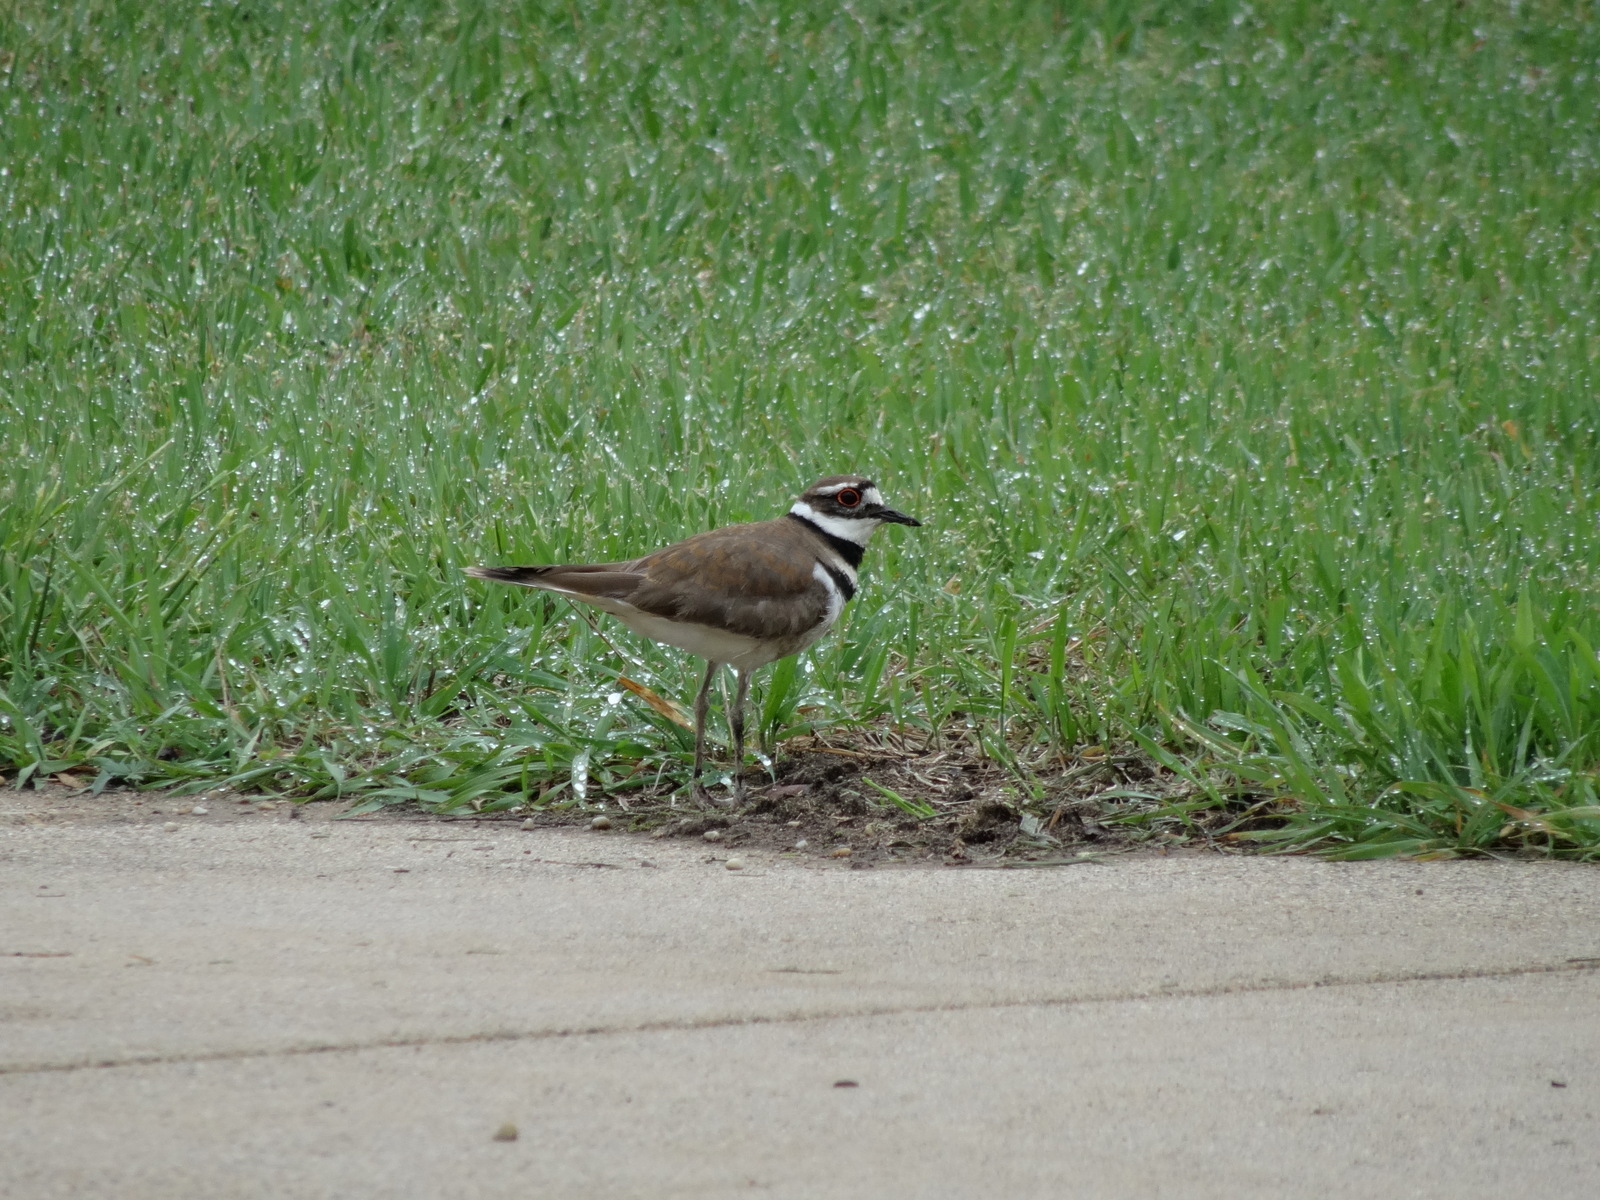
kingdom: Animalia
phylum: Chordata
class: Aves
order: Charadriiformes
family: Charadriidae
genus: Charadrius
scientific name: Charadrius vociferus
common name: Killdeer
